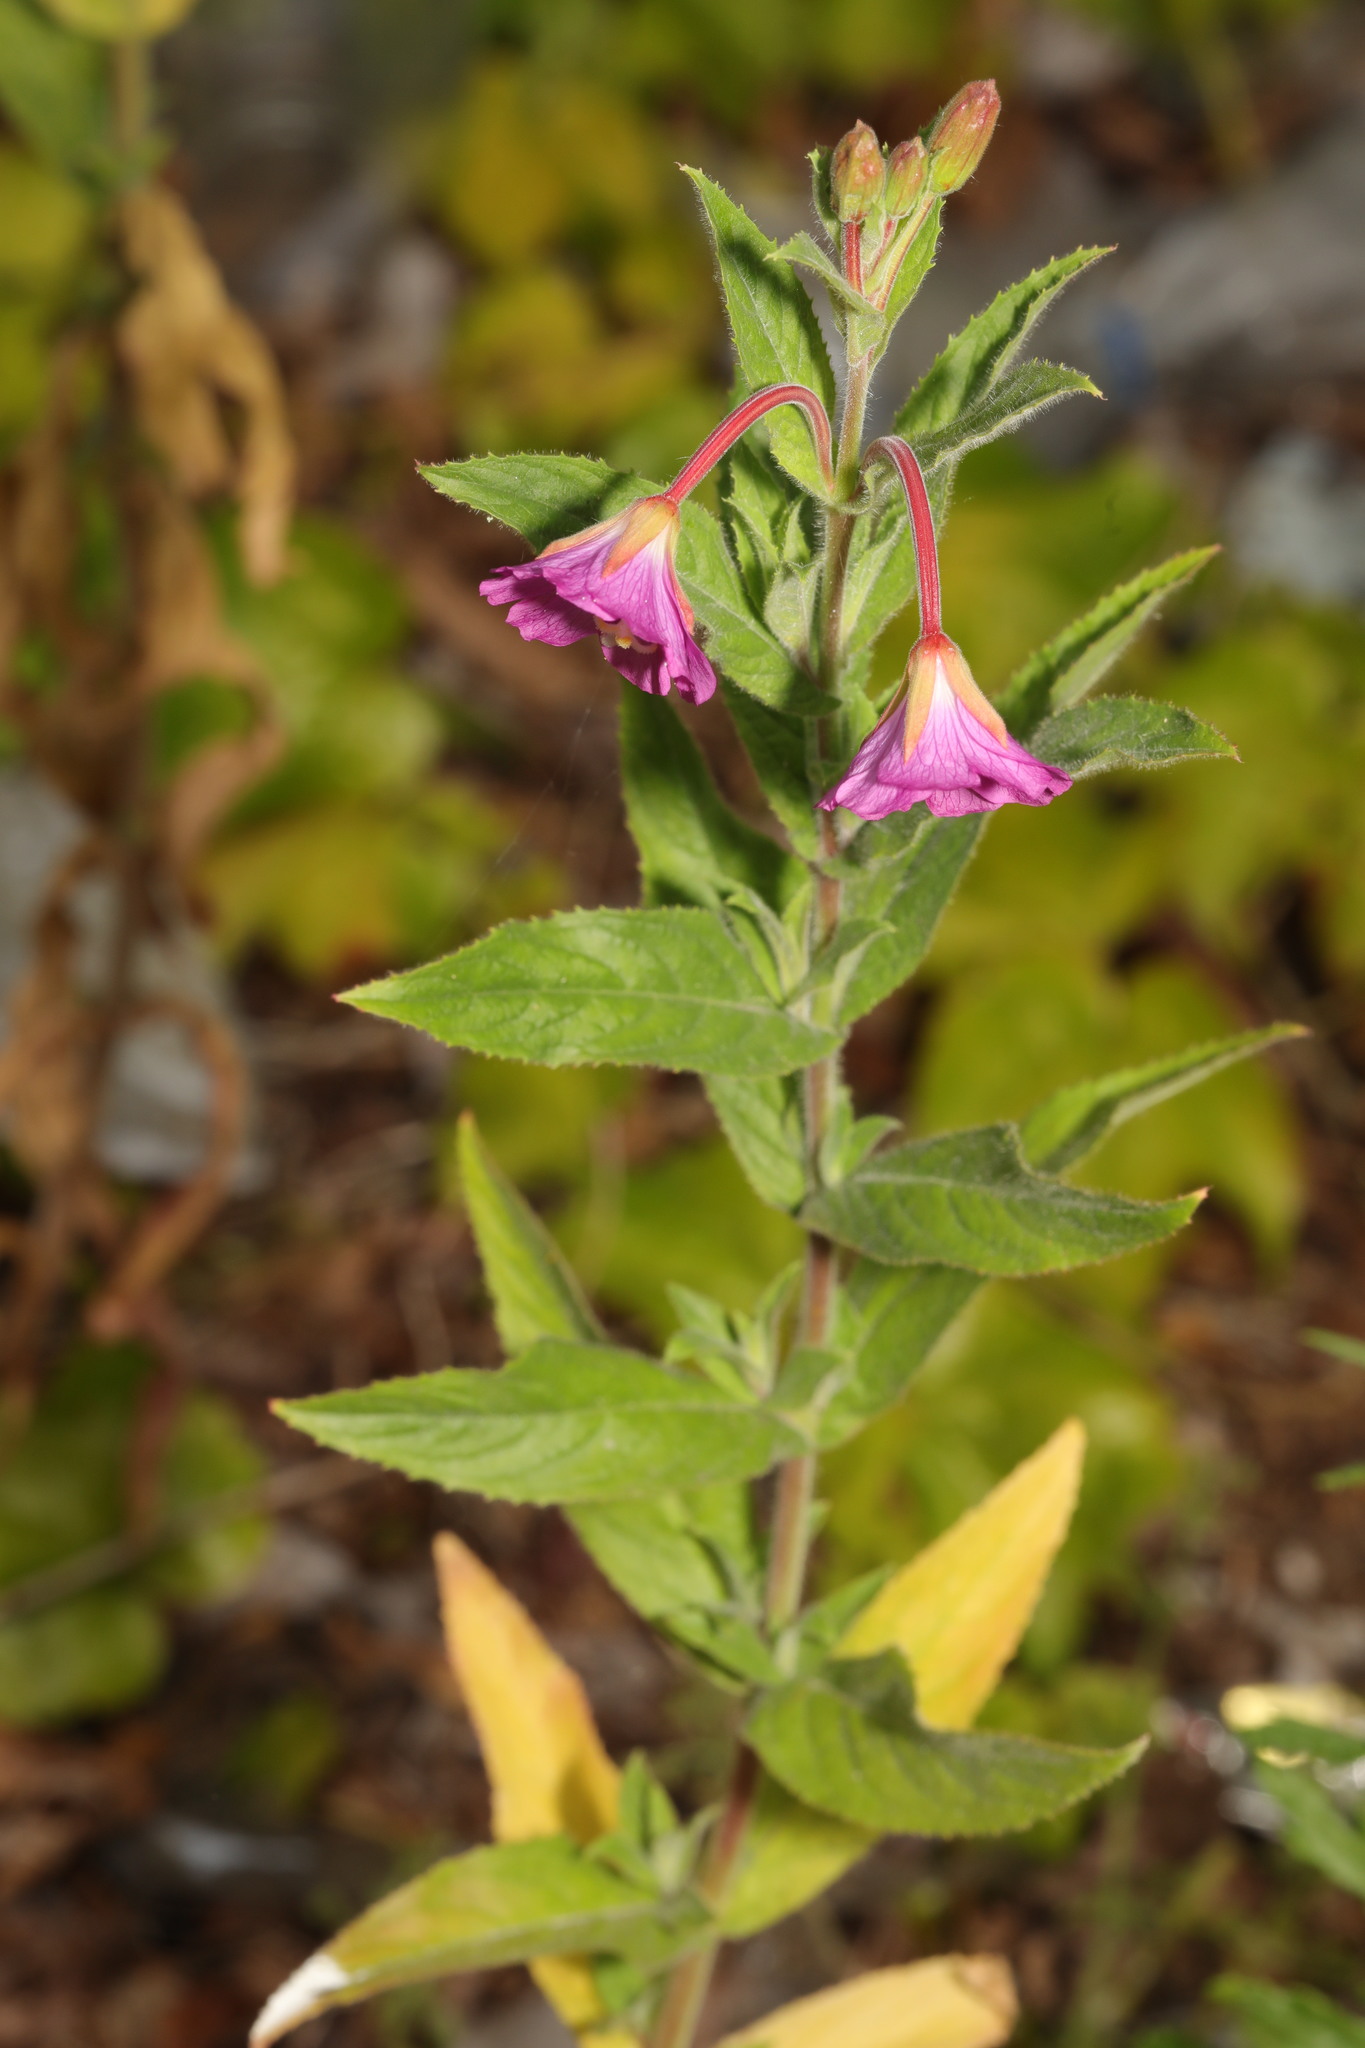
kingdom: Plantae
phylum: Tracheophyta
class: Magnoliopsida
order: Myrtales
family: Onagraceae
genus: Epilobium
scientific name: Epilobium hirsutum
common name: Great willowherb
